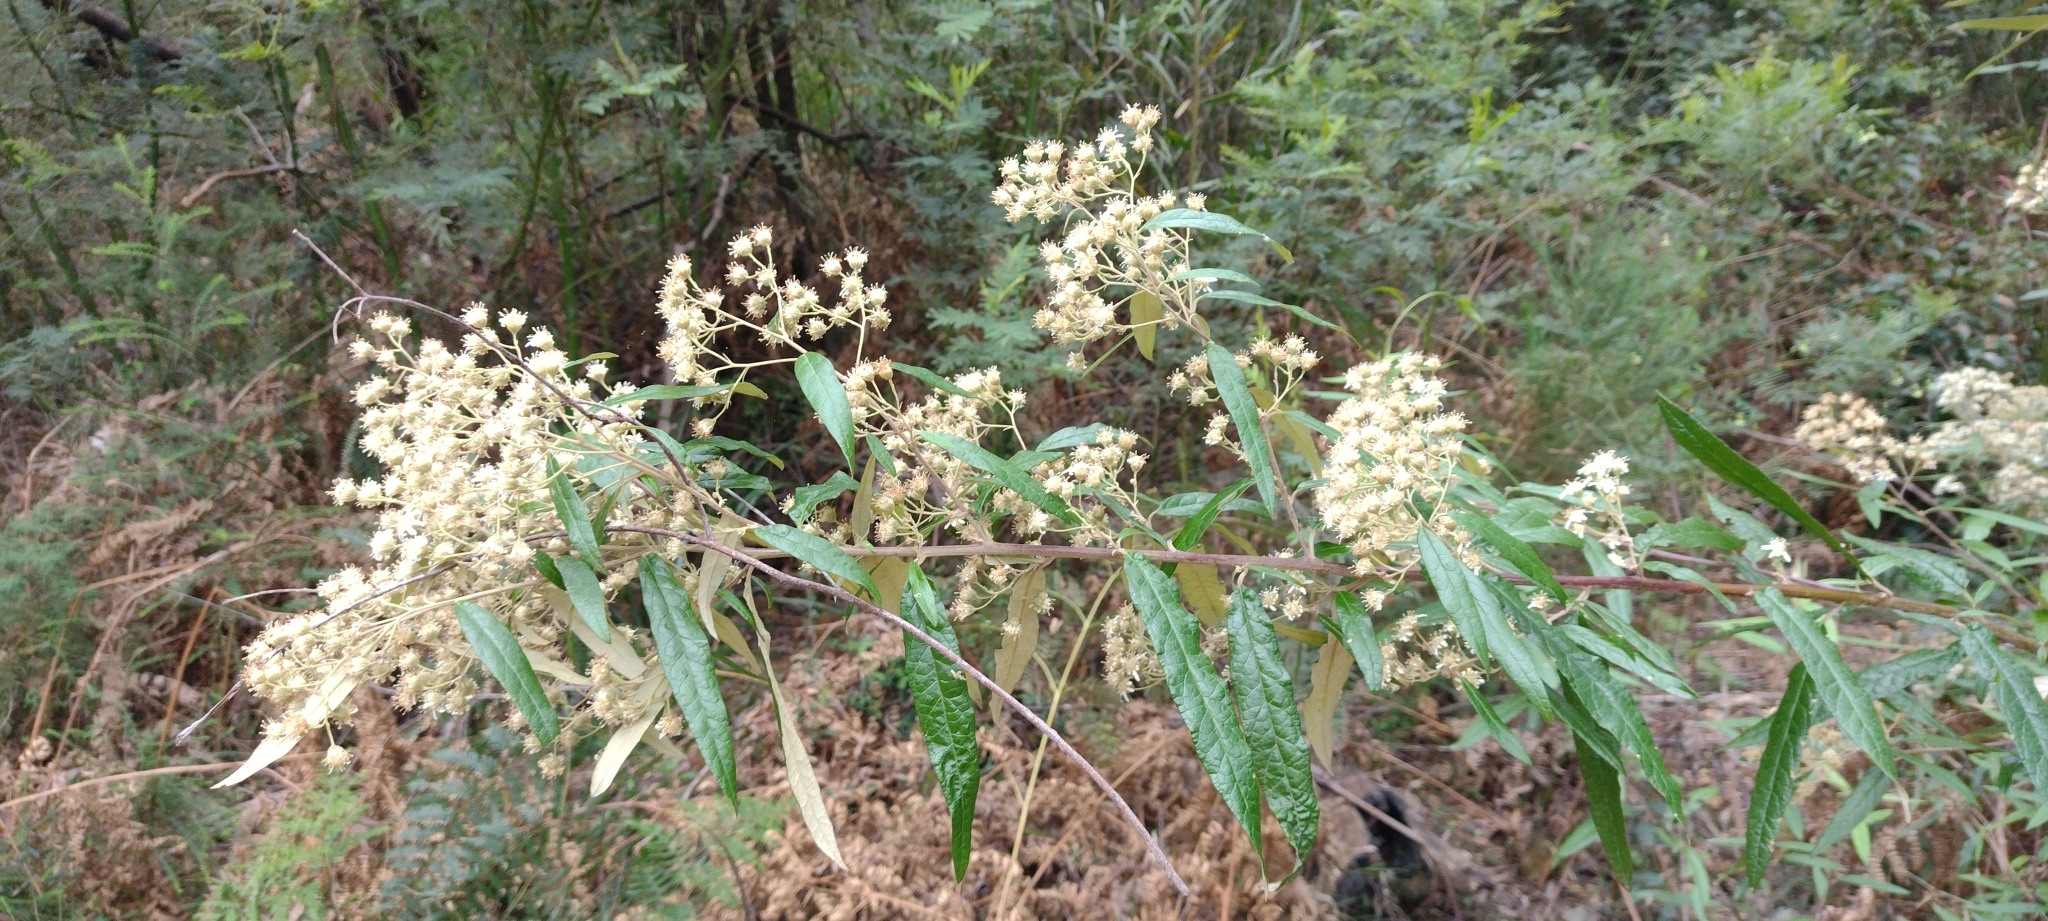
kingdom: Plantae
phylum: Tracheophyta
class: Magnoliopsida
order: Asterales
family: Asteraceae
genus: Olearia
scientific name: Olearia lirata
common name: Dusty daisybush
